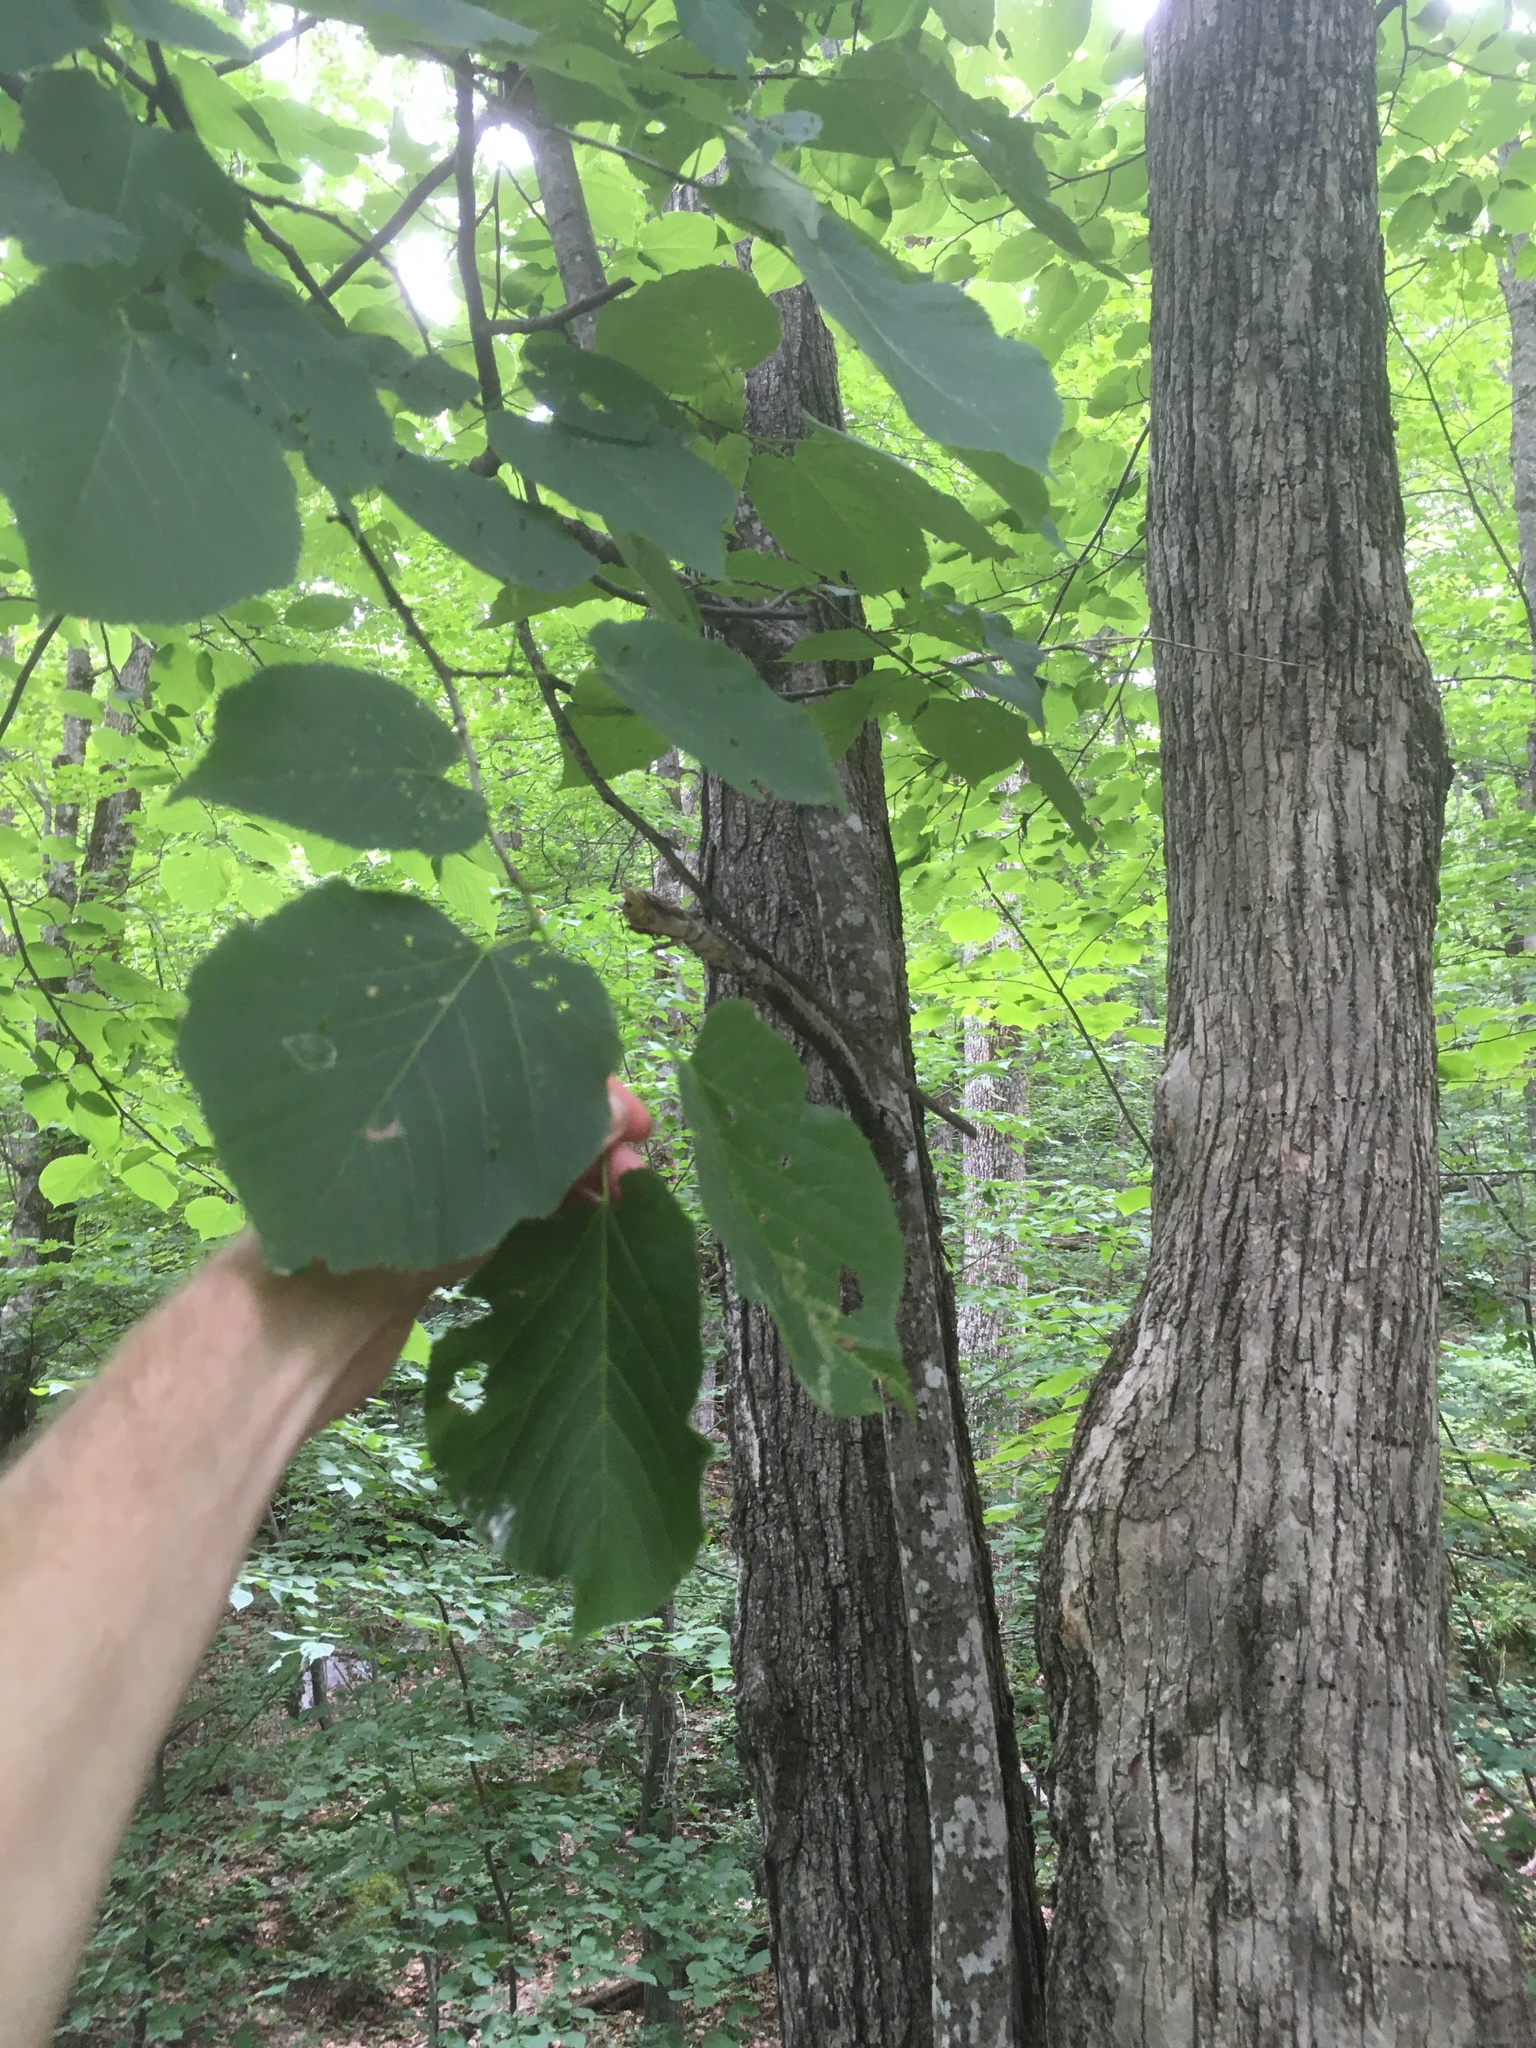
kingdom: Plantae
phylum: Tracheophyta
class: Magnoliopsida
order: Malvales
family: Malvaceae
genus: Tilia
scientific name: Tilia americana
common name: Basswood
